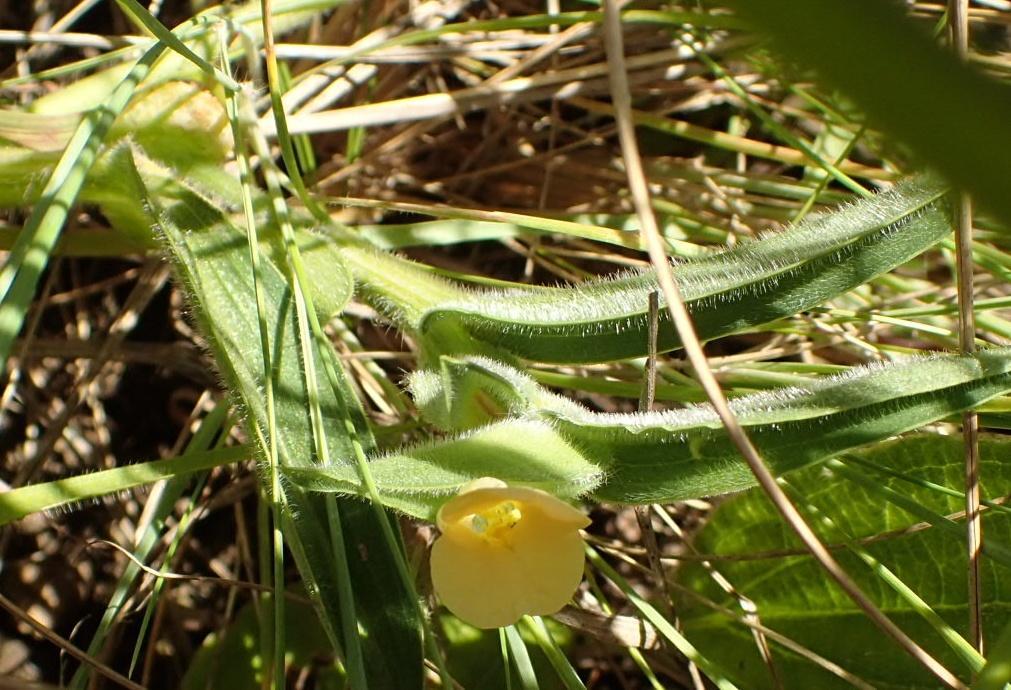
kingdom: Plantae
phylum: Tracheophyta
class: Liliopsida
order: Commelinales
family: Commelinaceae
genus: Commelina
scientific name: Commelina africana
